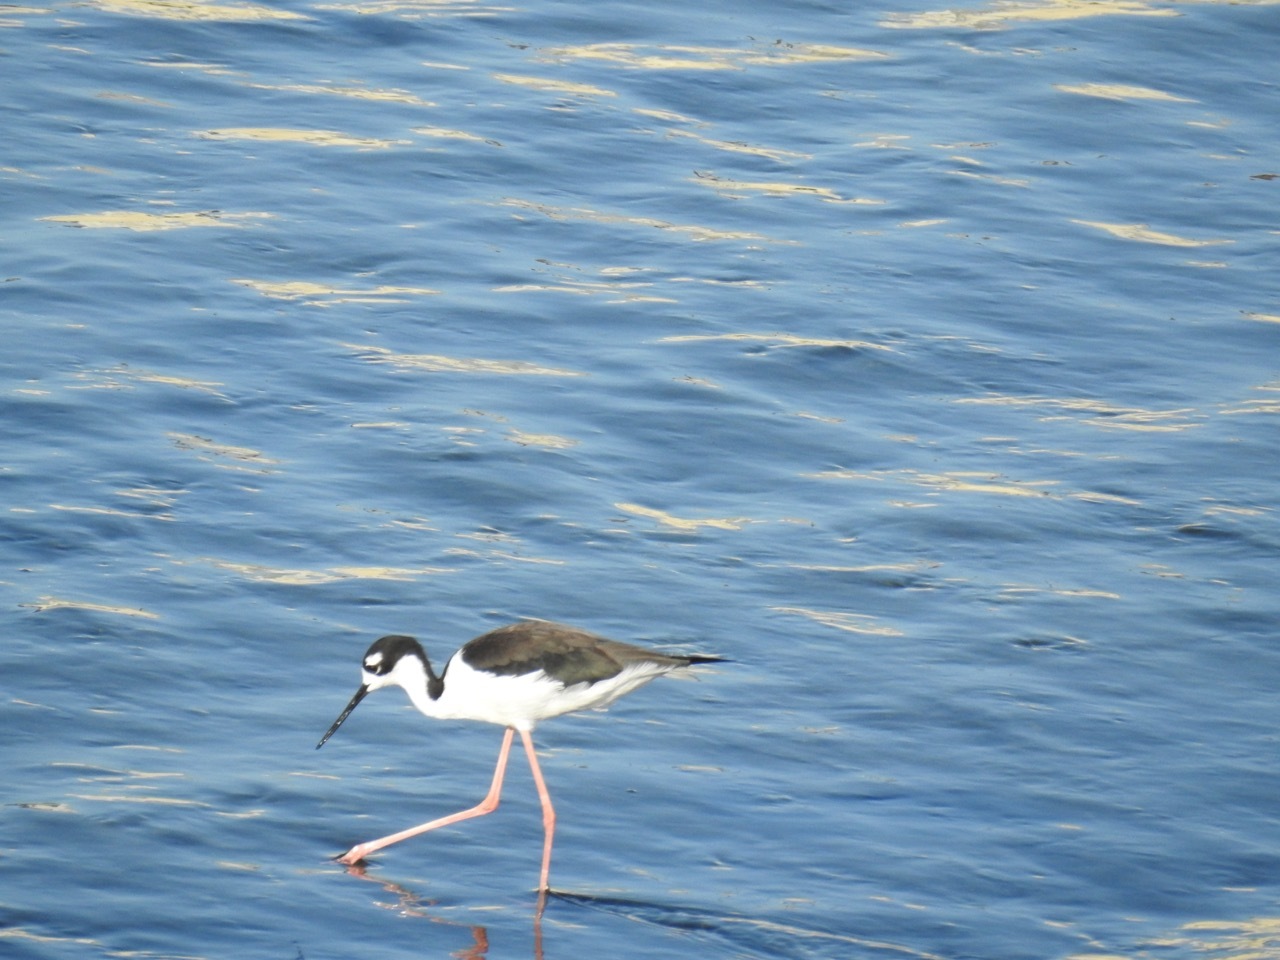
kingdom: Animalia
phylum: Chordata
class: Aves
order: Charadriiformes
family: Recurvirostridae
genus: Himantopus
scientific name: Himantopus mexicanus
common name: Black-necked stilt
